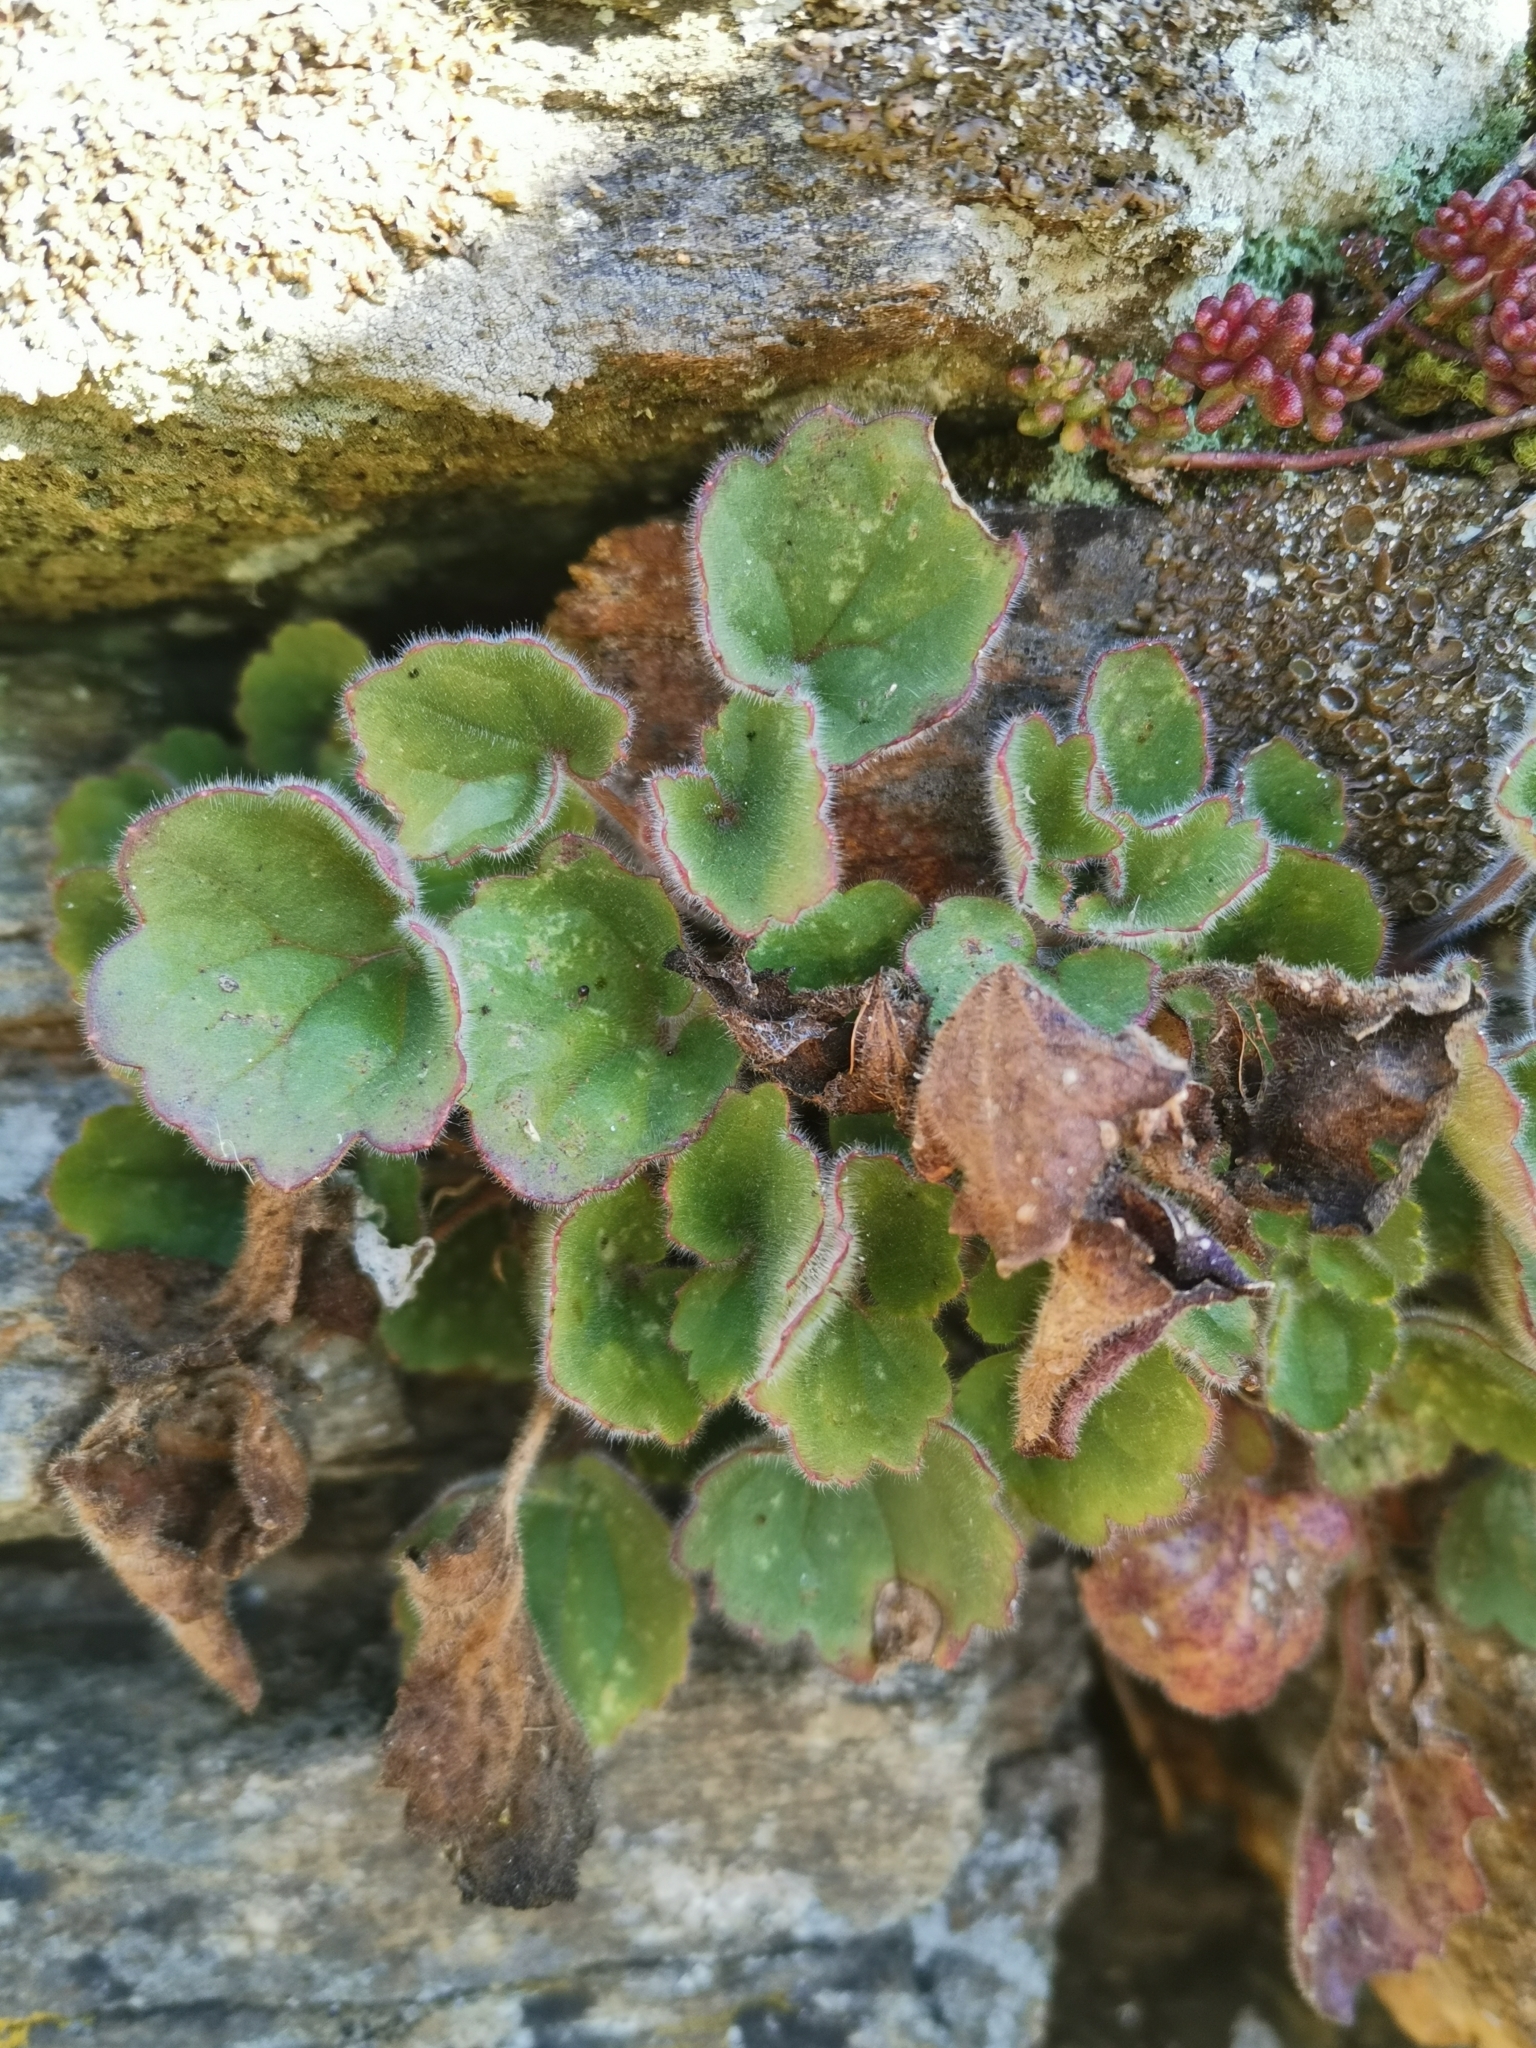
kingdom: Plantae
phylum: Tracheophyta
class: Magnoliopsida
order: Lamiales
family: Plantaginaceae
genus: Asarina
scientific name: Asarina procumbens
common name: Trailing snapdragon
